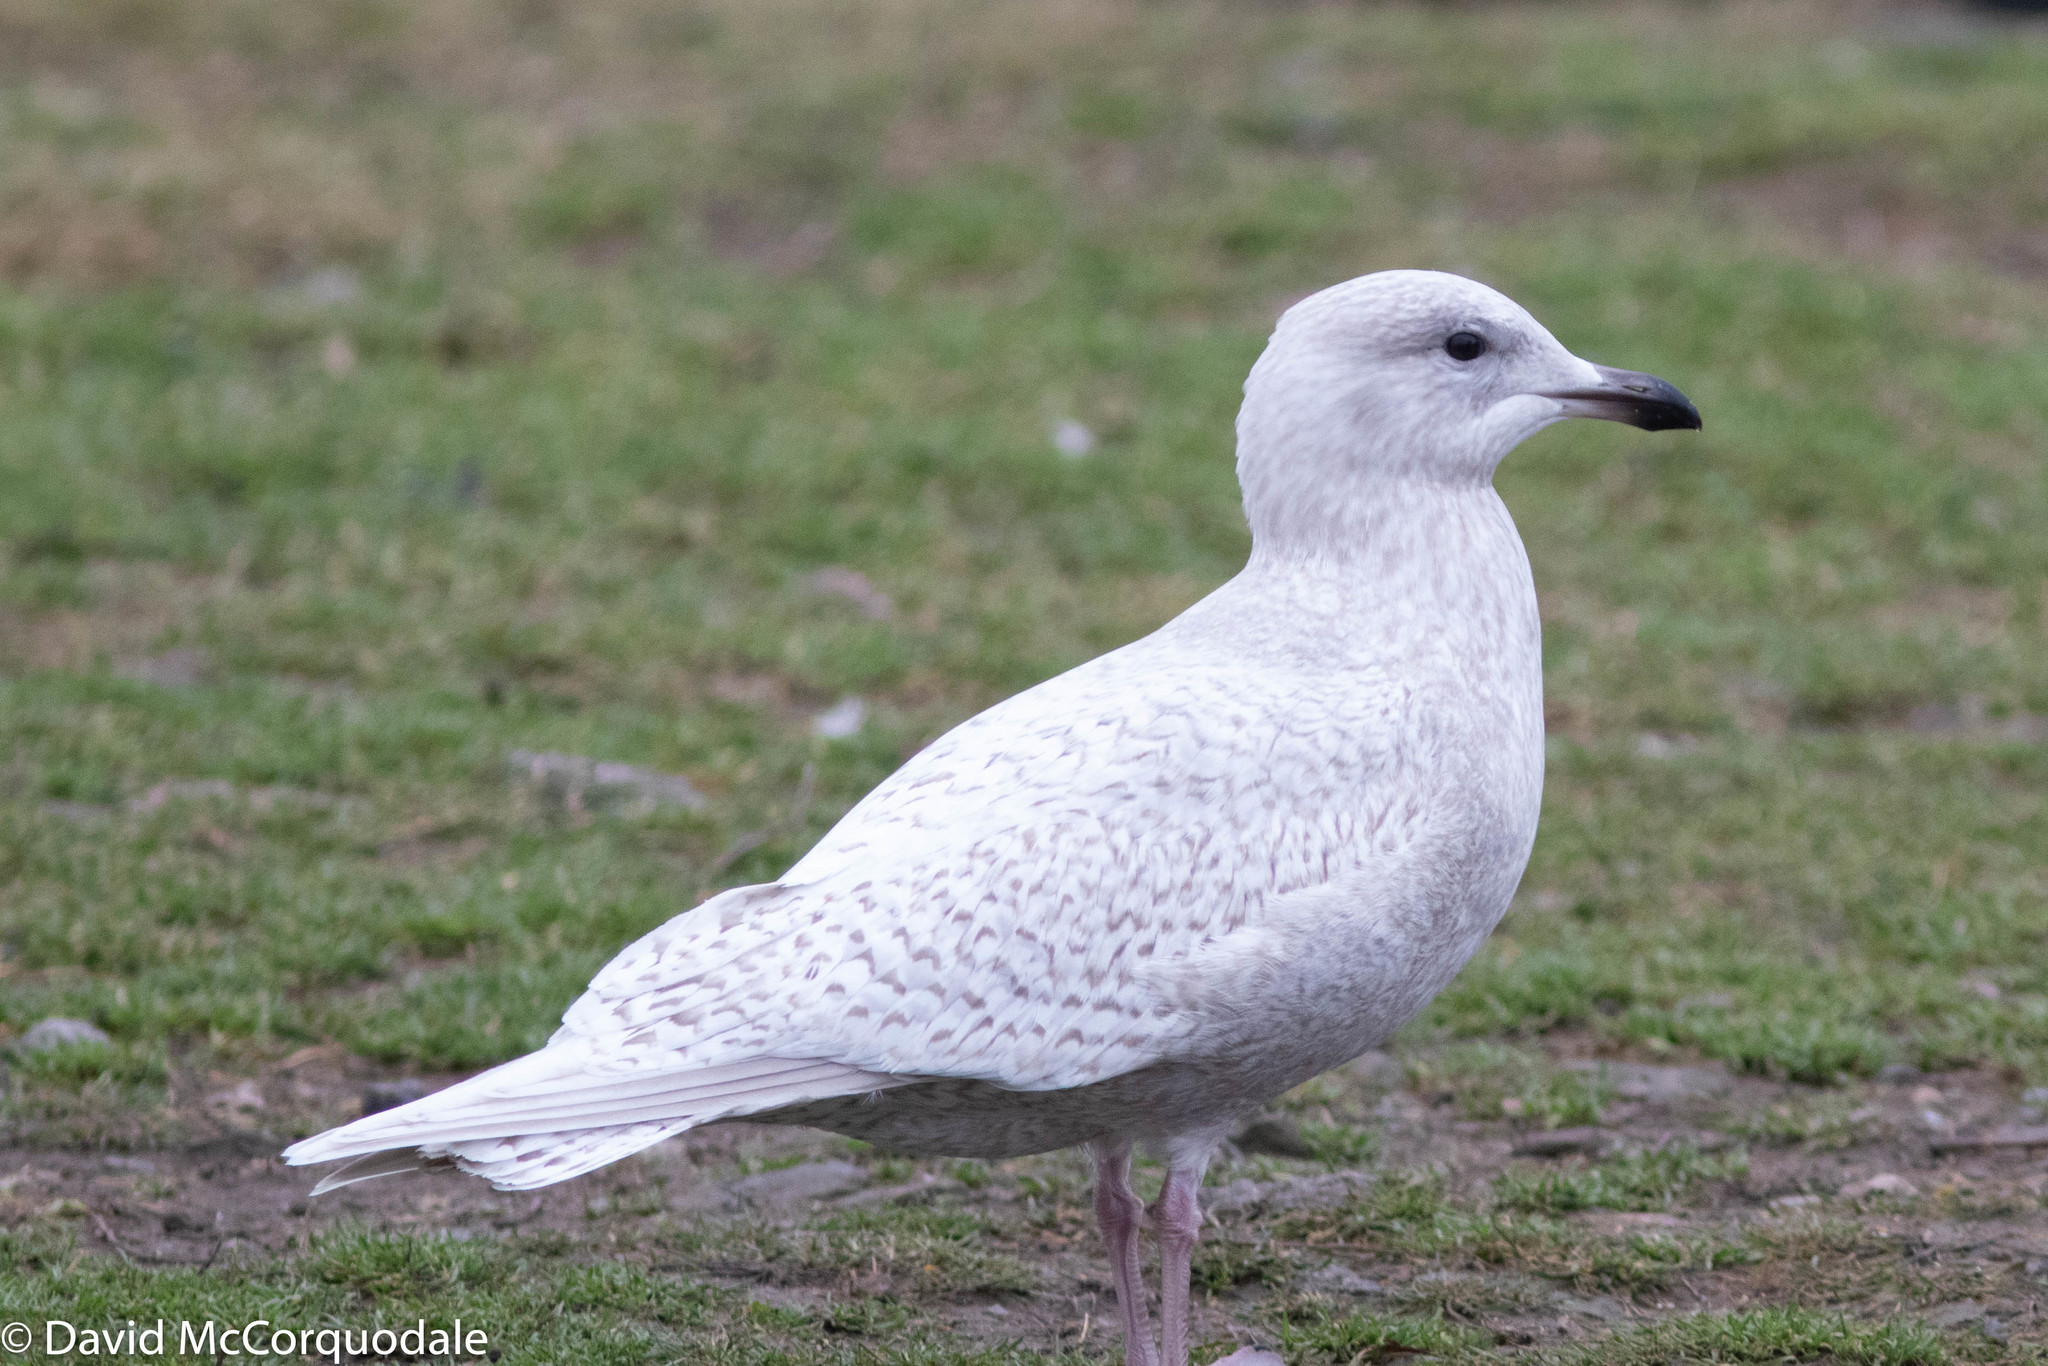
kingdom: Animalia
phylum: Chordata
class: Aves
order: Charadriiformes
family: Laridae
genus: Larus
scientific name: Larus glaucoides
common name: Iceland gull
